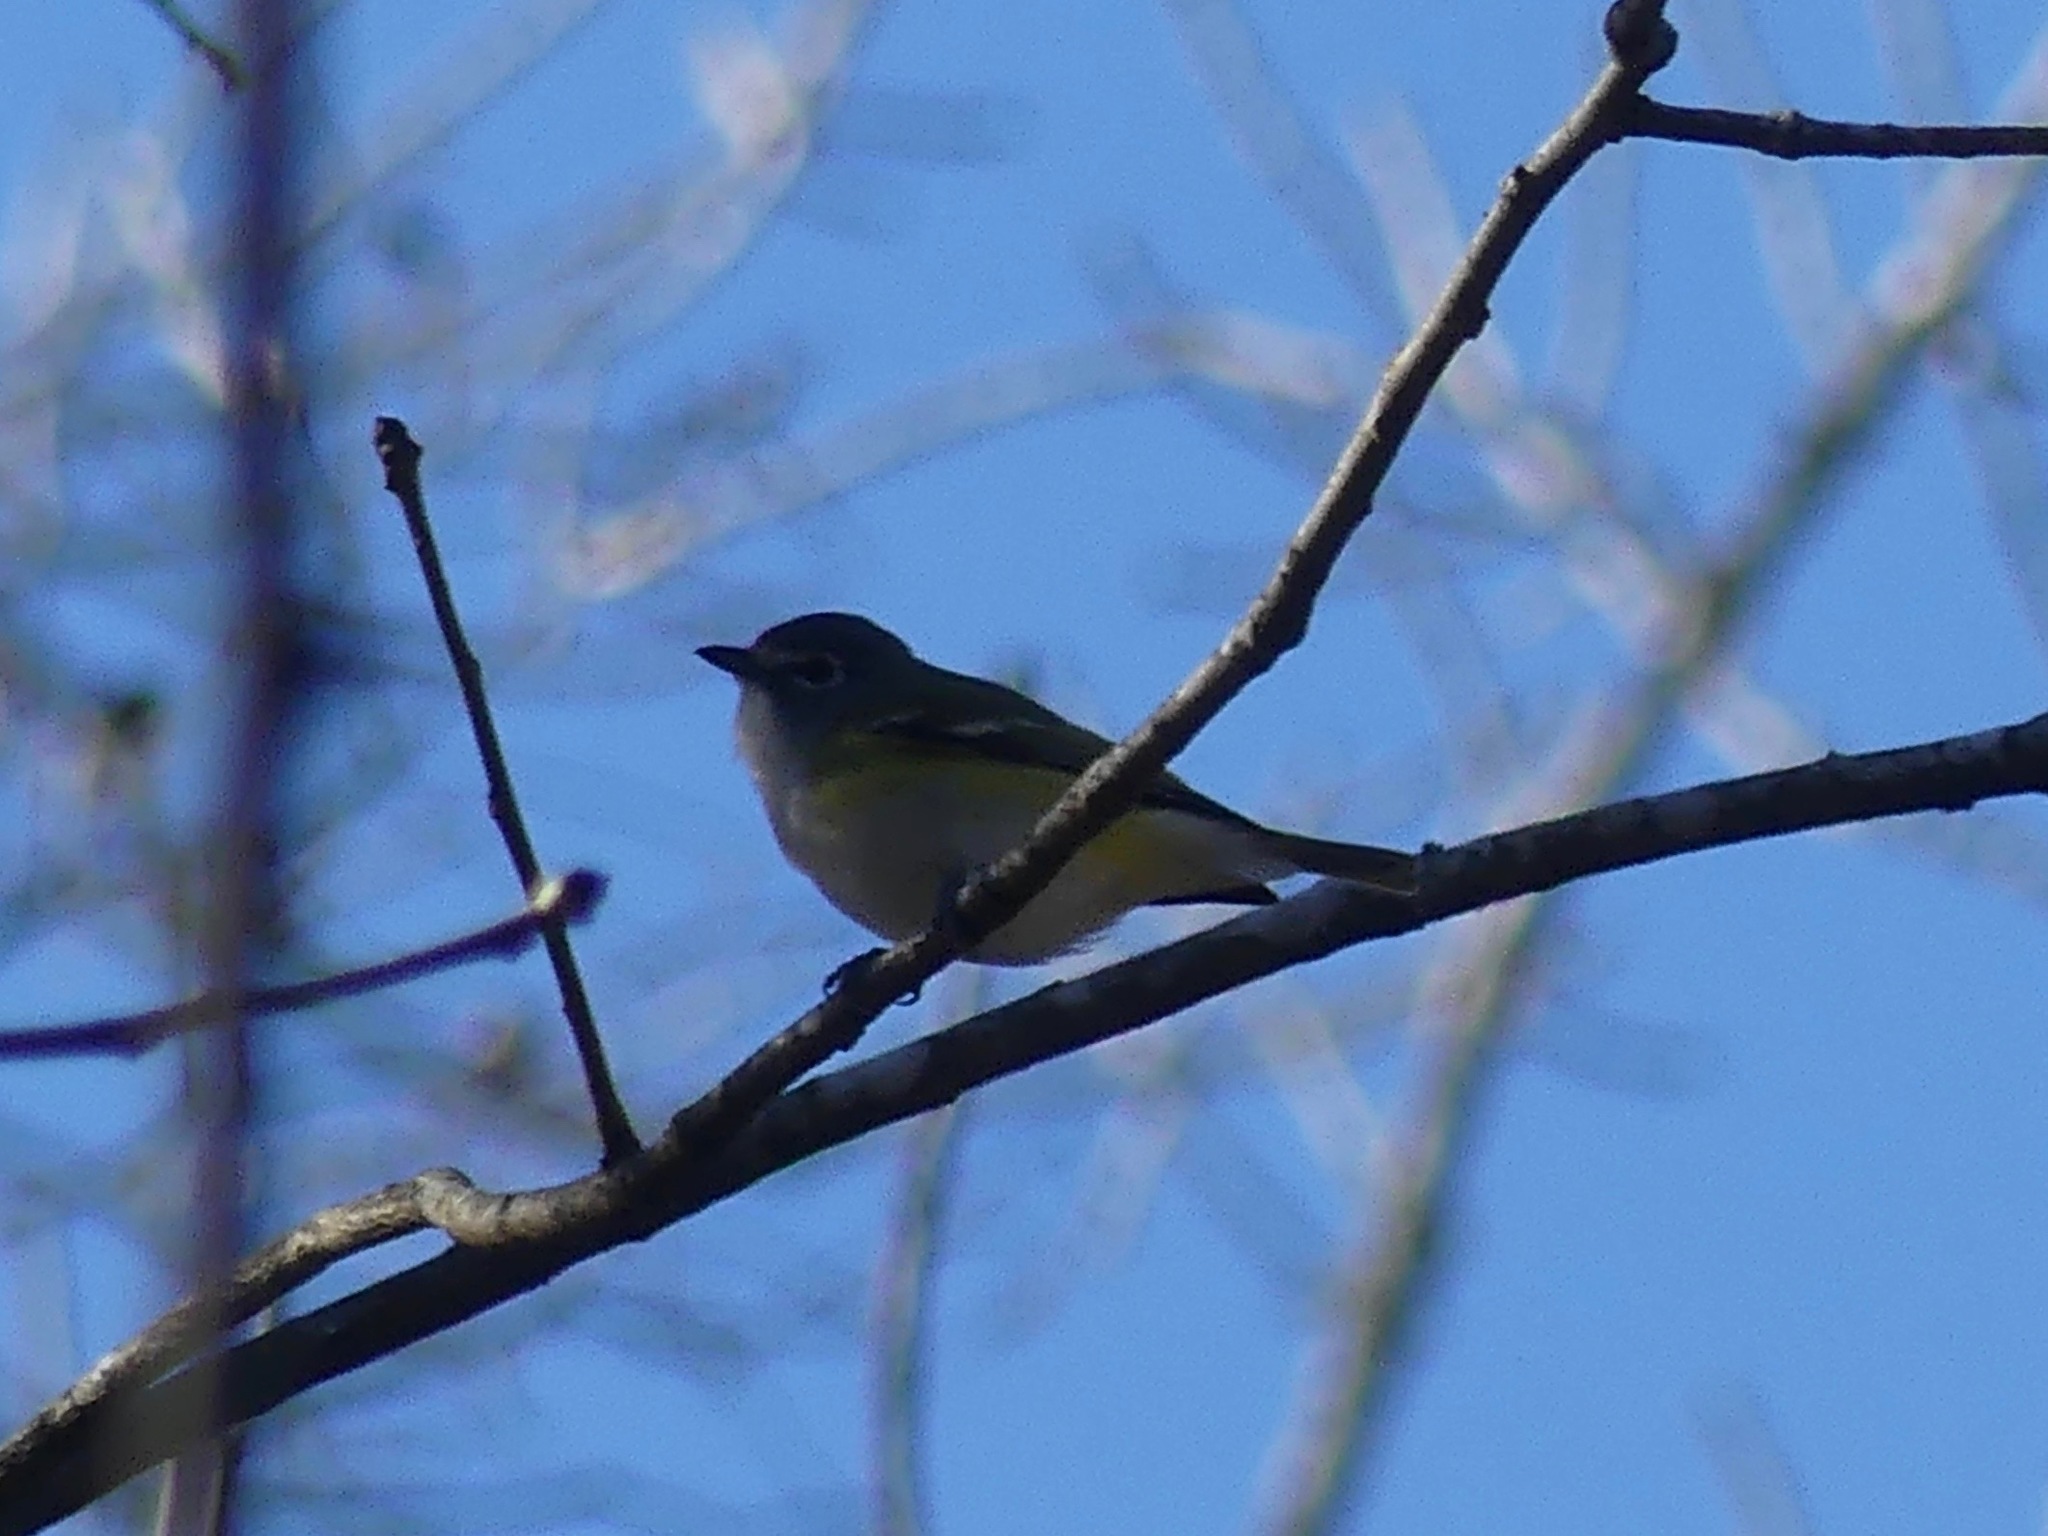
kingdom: Animalia
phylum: Chordata
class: Aves
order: Passeriformes
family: Vireonidae
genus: Vireo
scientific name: Vireo solitarius
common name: Blue-headed vireo
